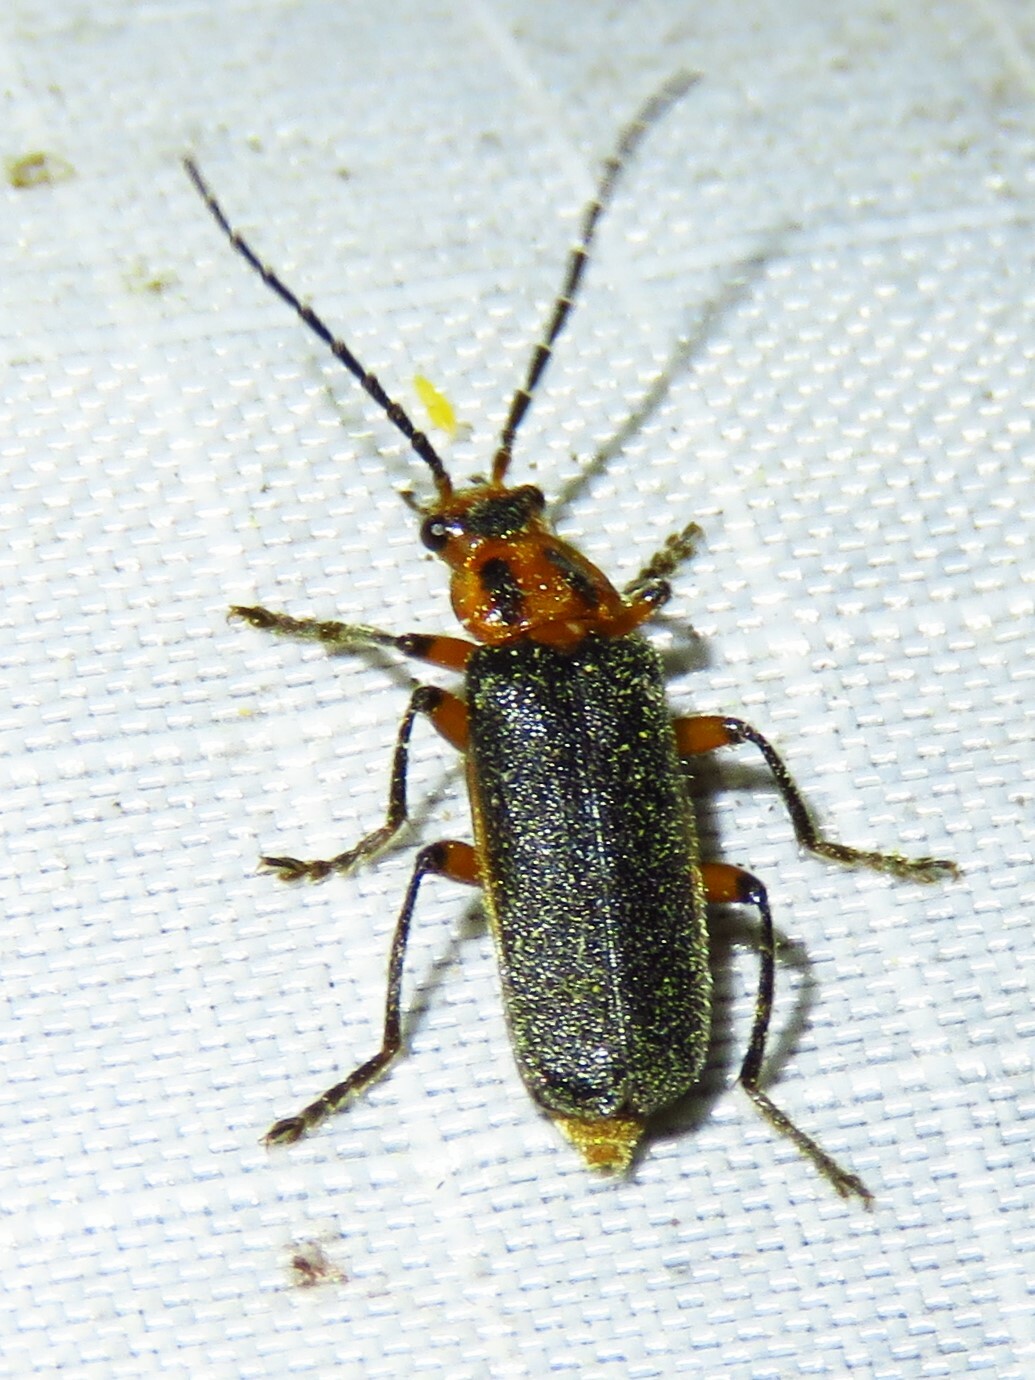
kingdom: Animalia
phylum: Arthropoda
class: Insecta
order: Coleoptera
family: Cantharidae
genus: Atalantycha
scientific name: Atalantycha bilineata
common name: Two-lined leatherwing
